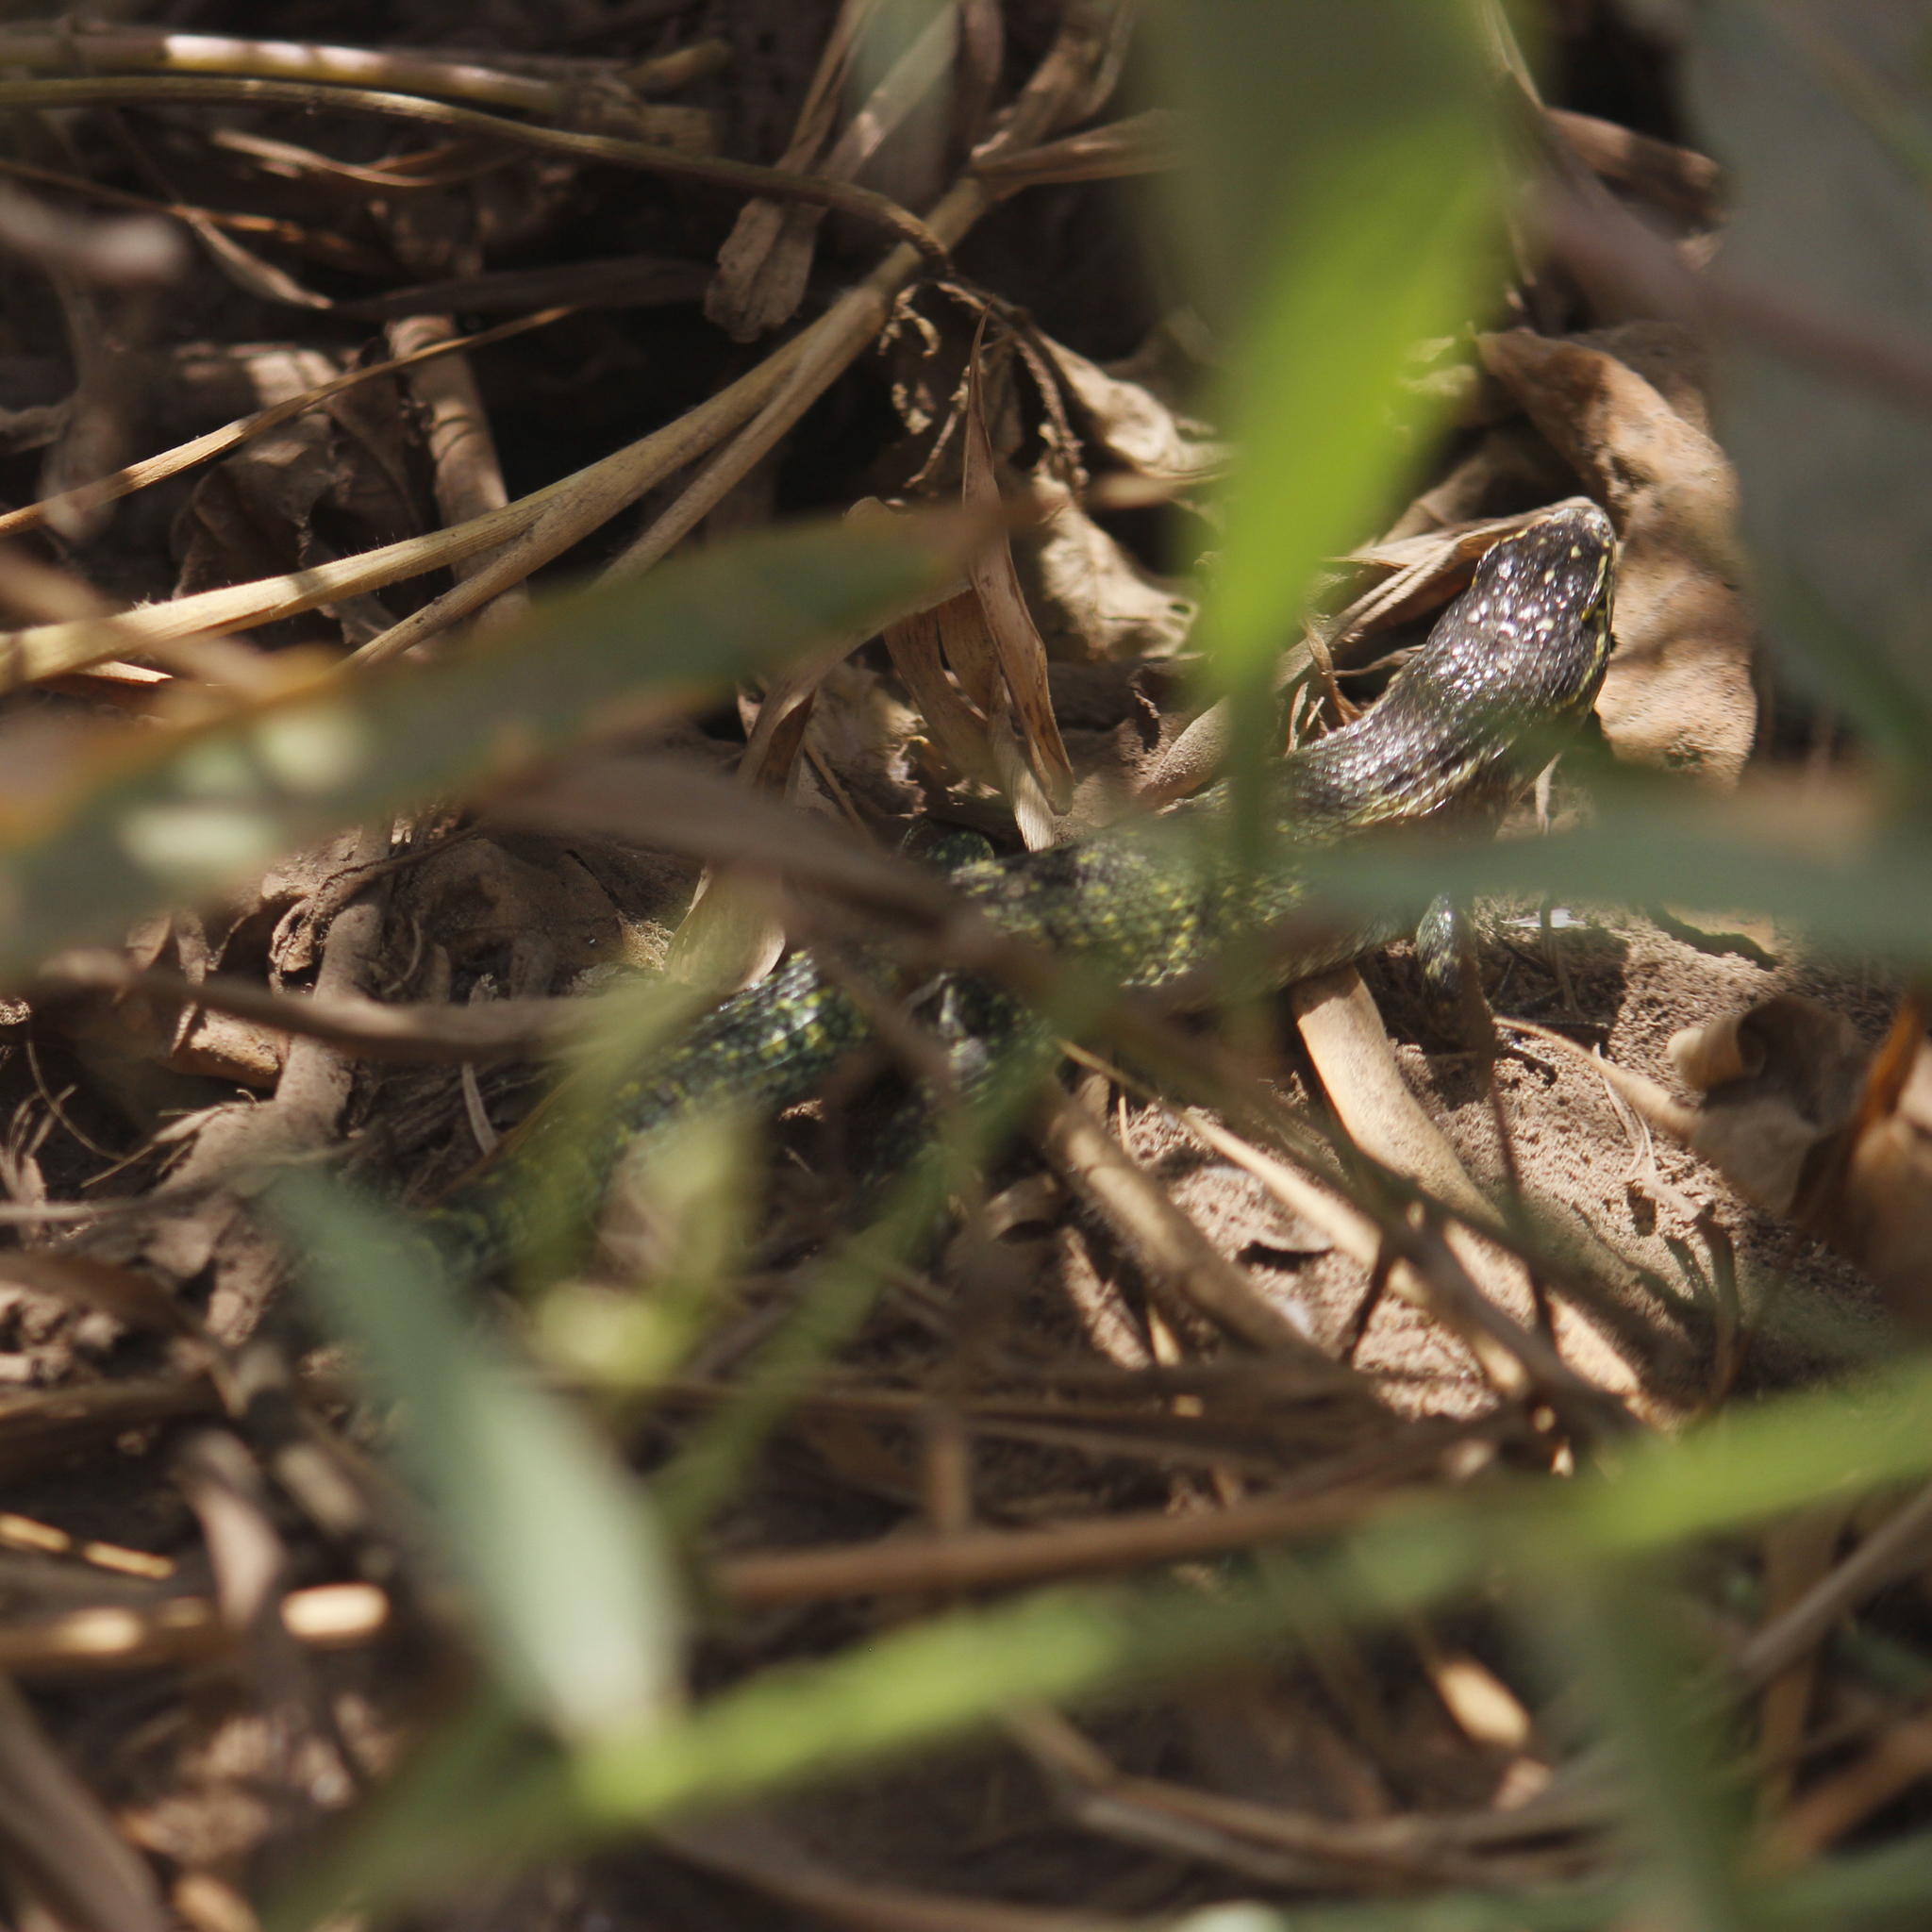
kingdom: Animalia
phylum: Chordata
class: Squamata
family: Tropiduridae
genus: Stenocercus
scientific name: Stenocercus modestus
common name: Modest whorltail iguana
